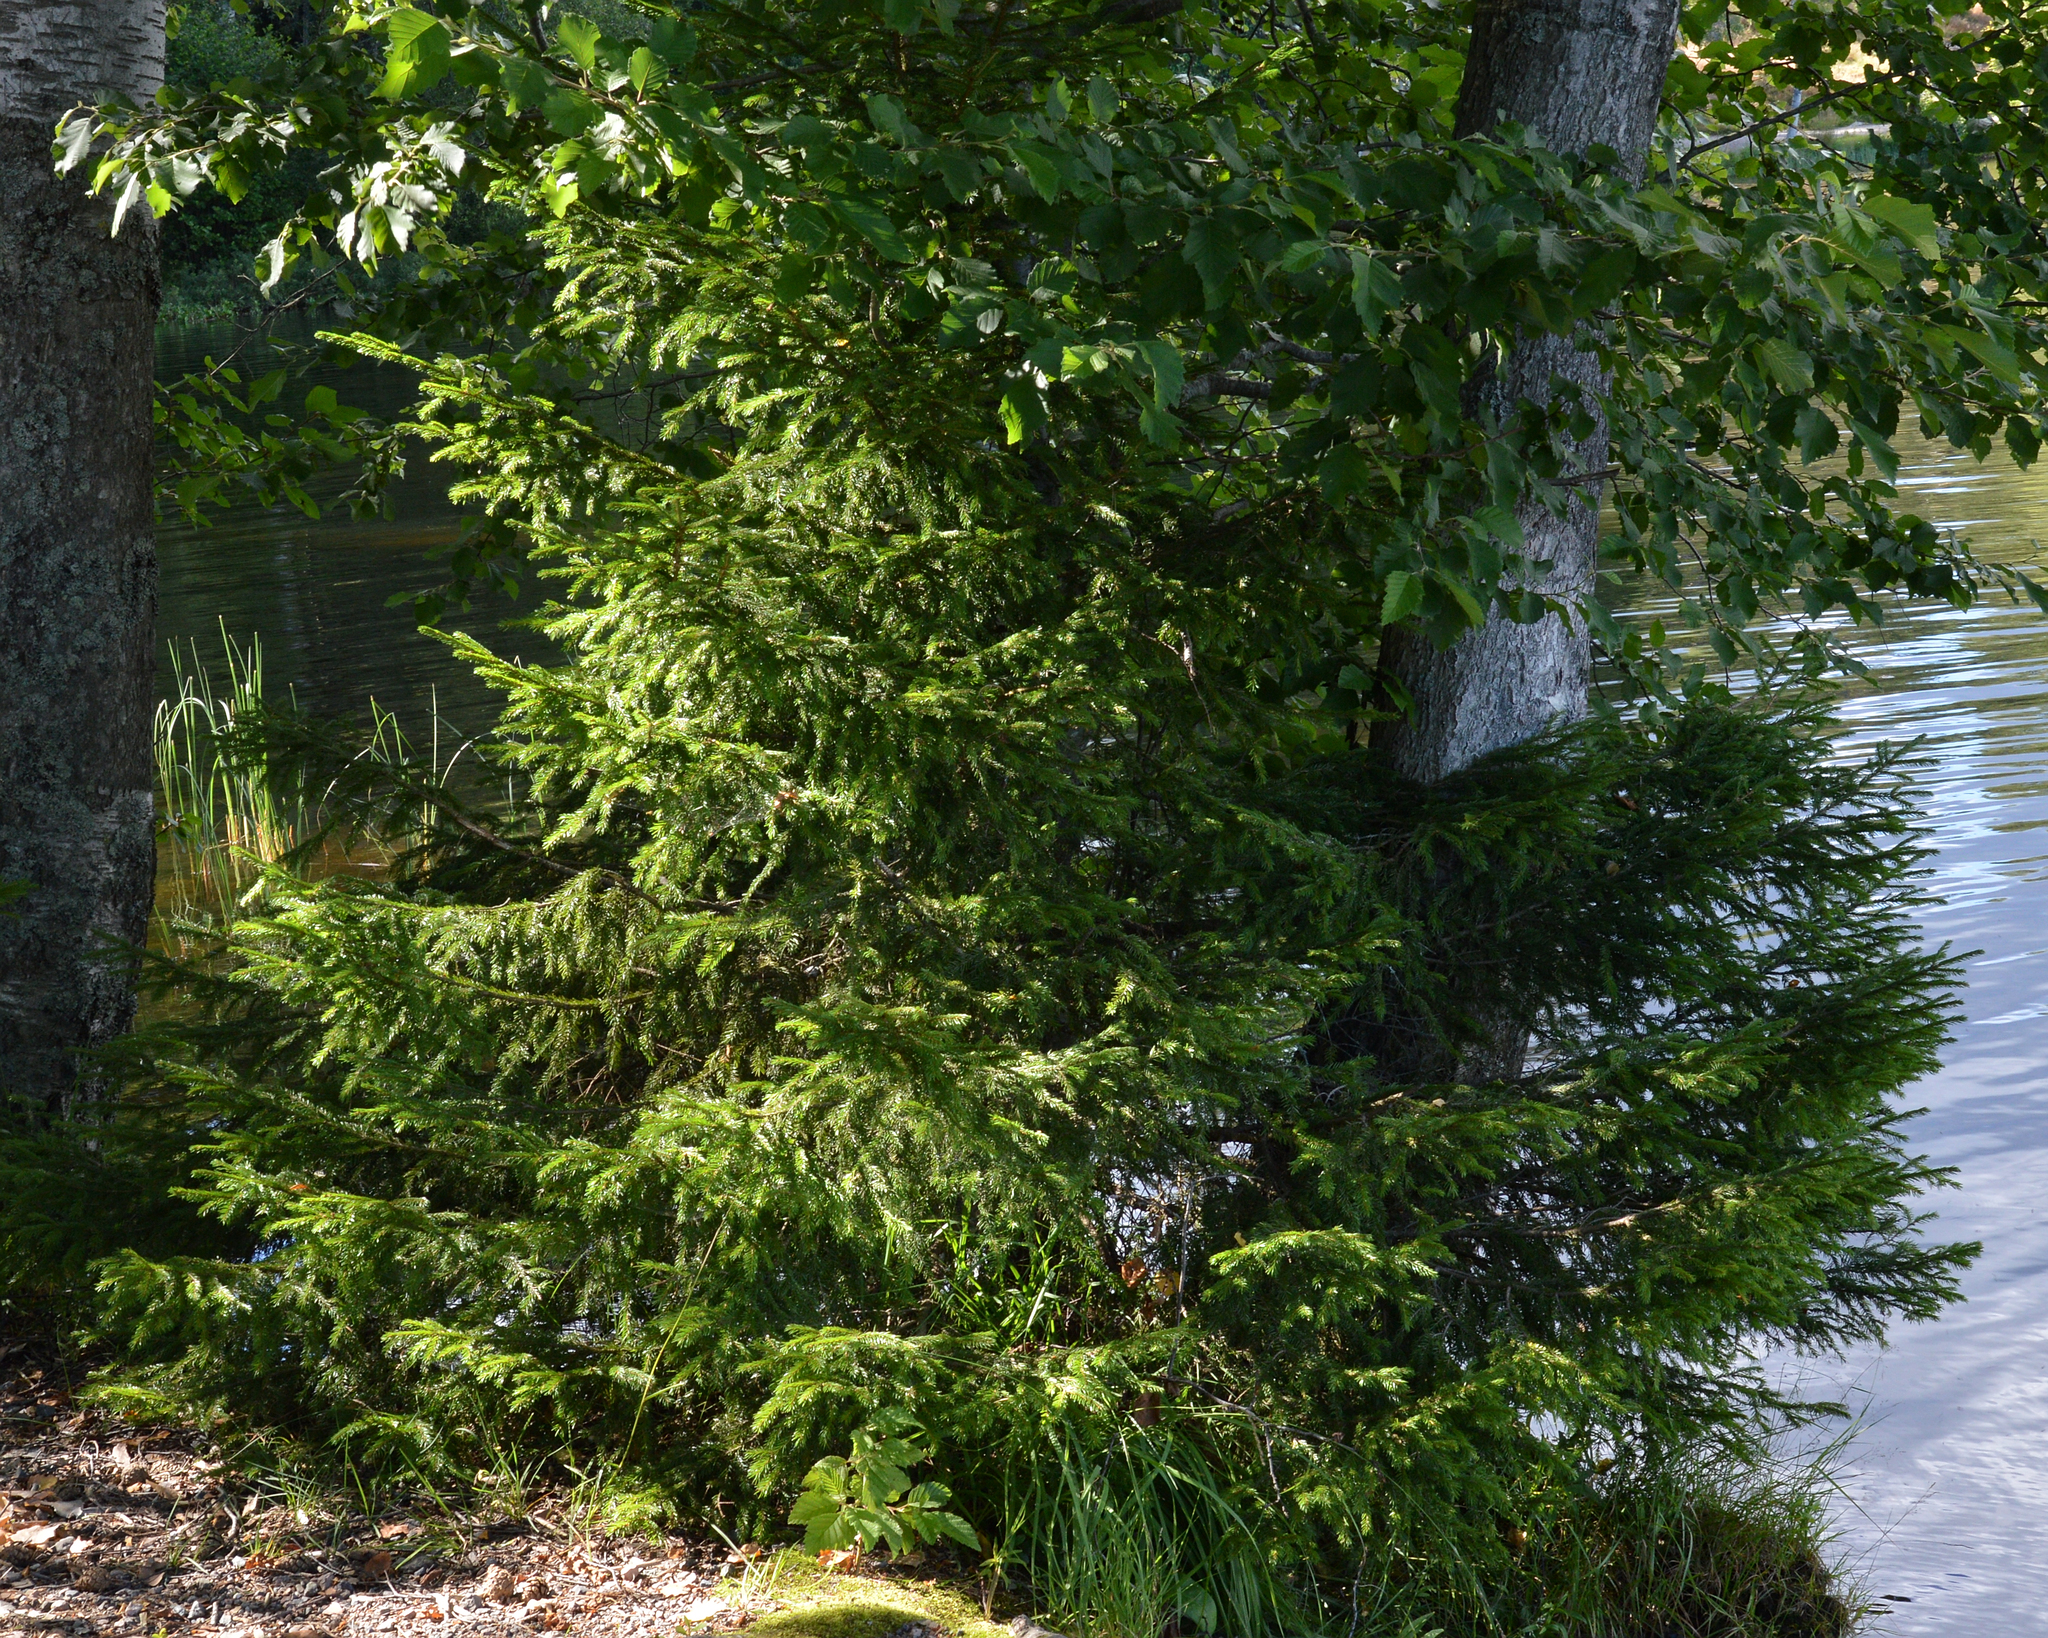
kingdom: Plantae
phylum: Tracheophyta
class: Magnoliopsida
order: Fagales
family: Betulaceae
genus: Alnus
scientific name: Alnus incana
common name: Grey alder
